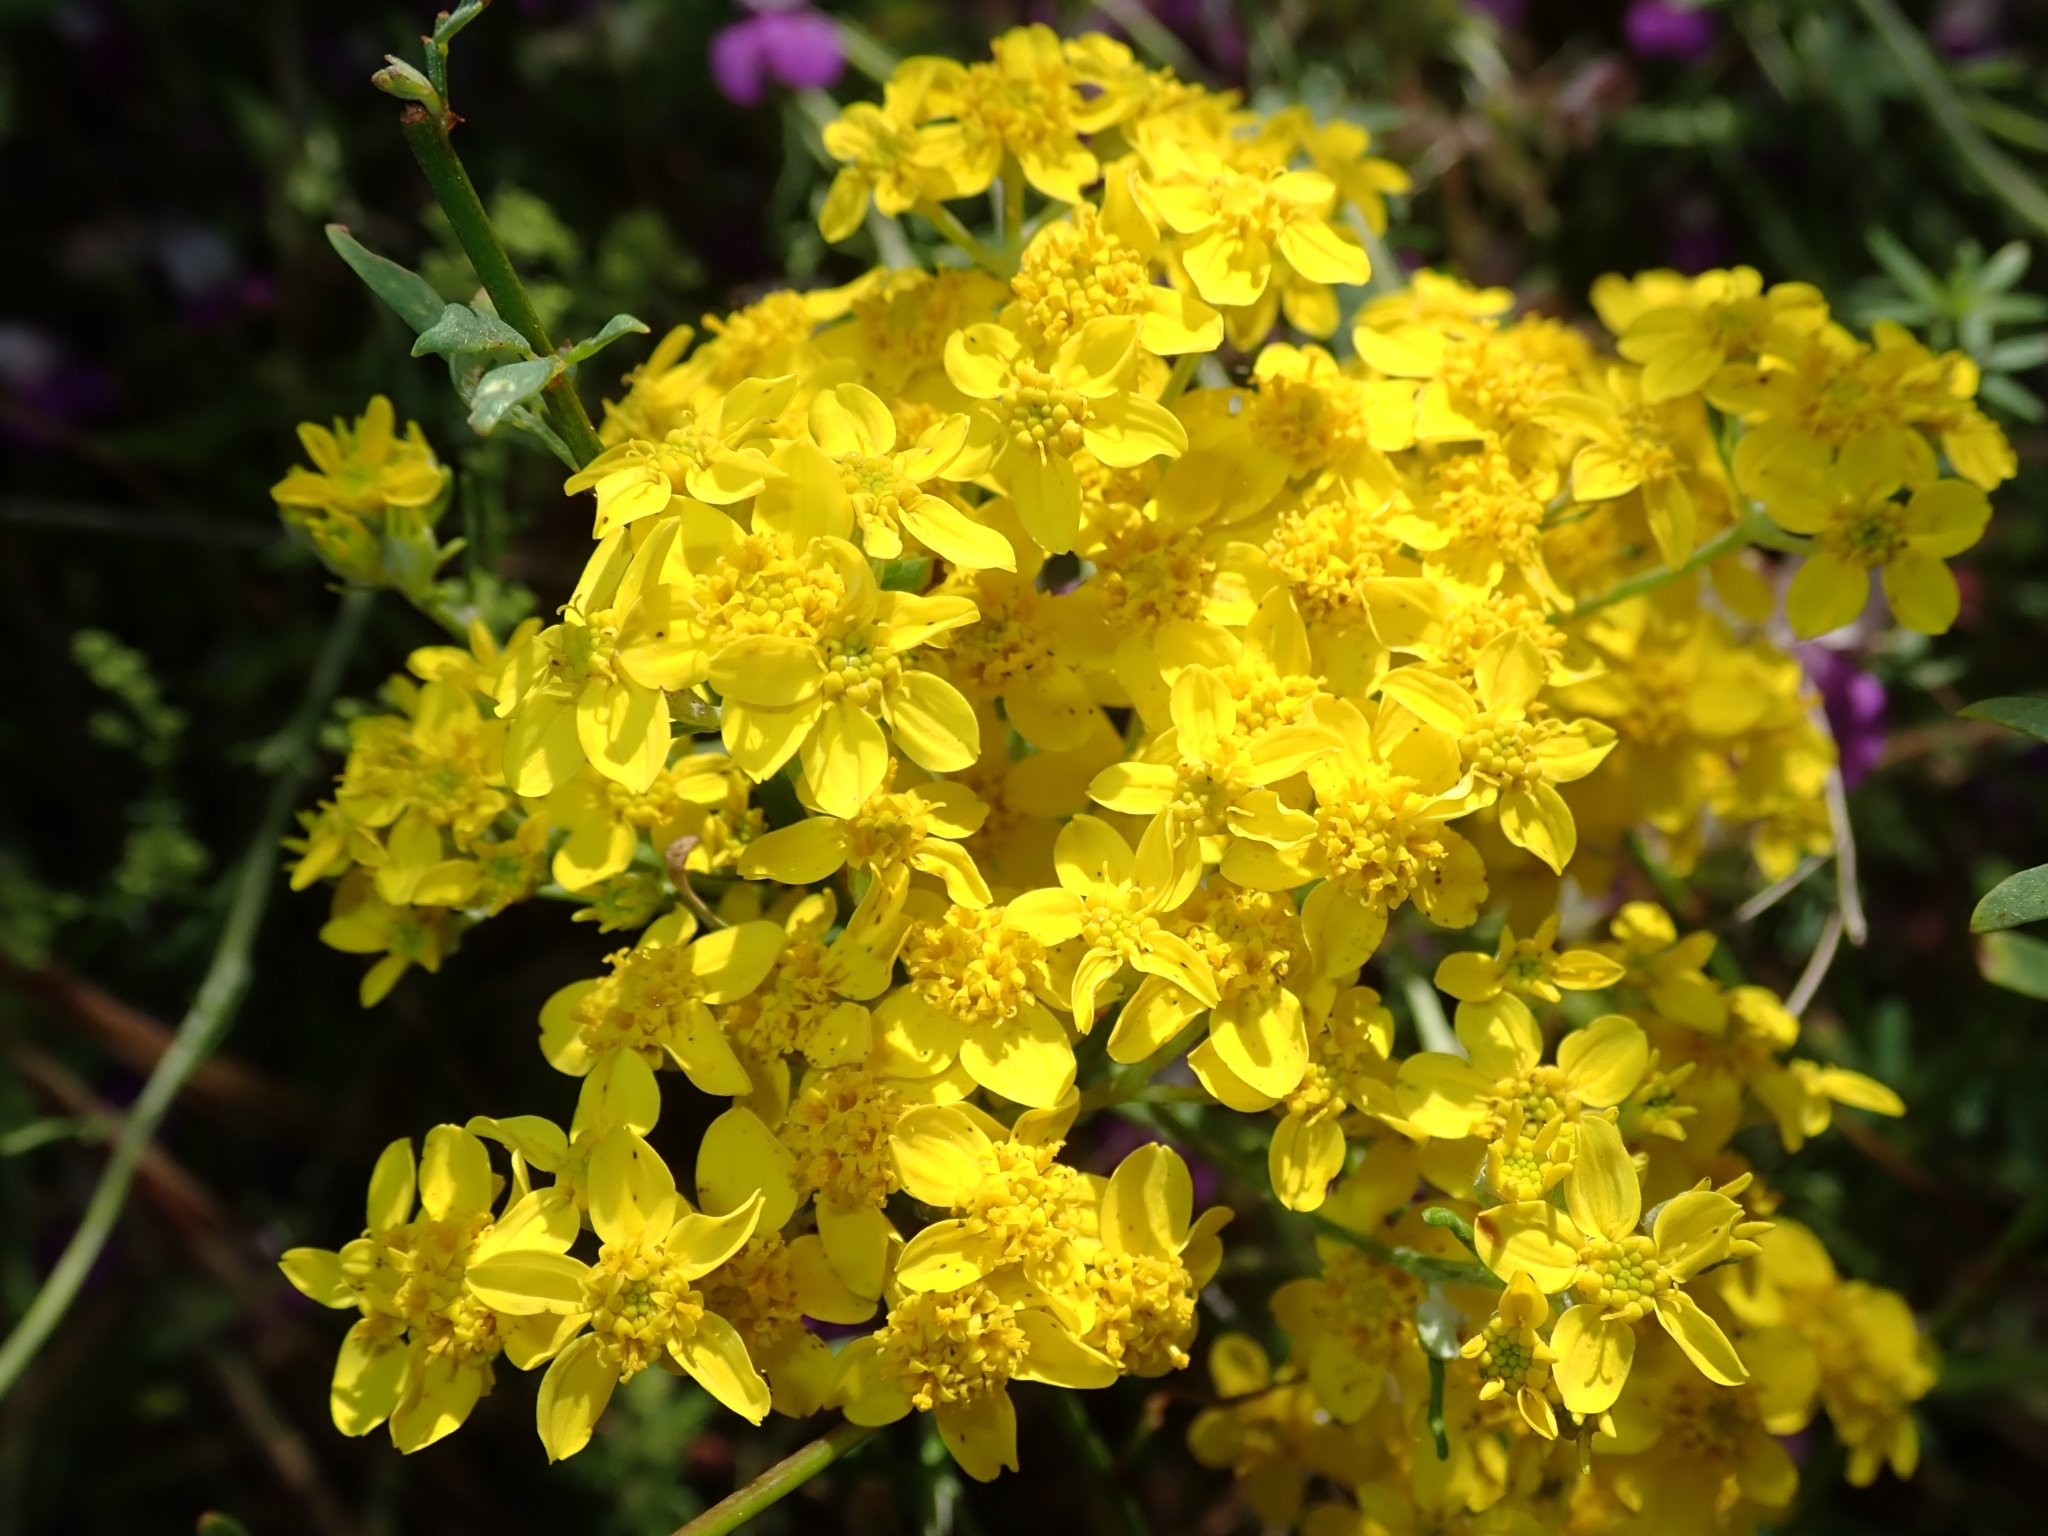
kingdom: Plantae
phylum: Tracheophyta
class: Magnoliopsida
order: Asterales
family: Asteraceae
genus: Eriophyllum
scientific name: Eriophyllum confertiflorum
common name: Golden-yarrow
